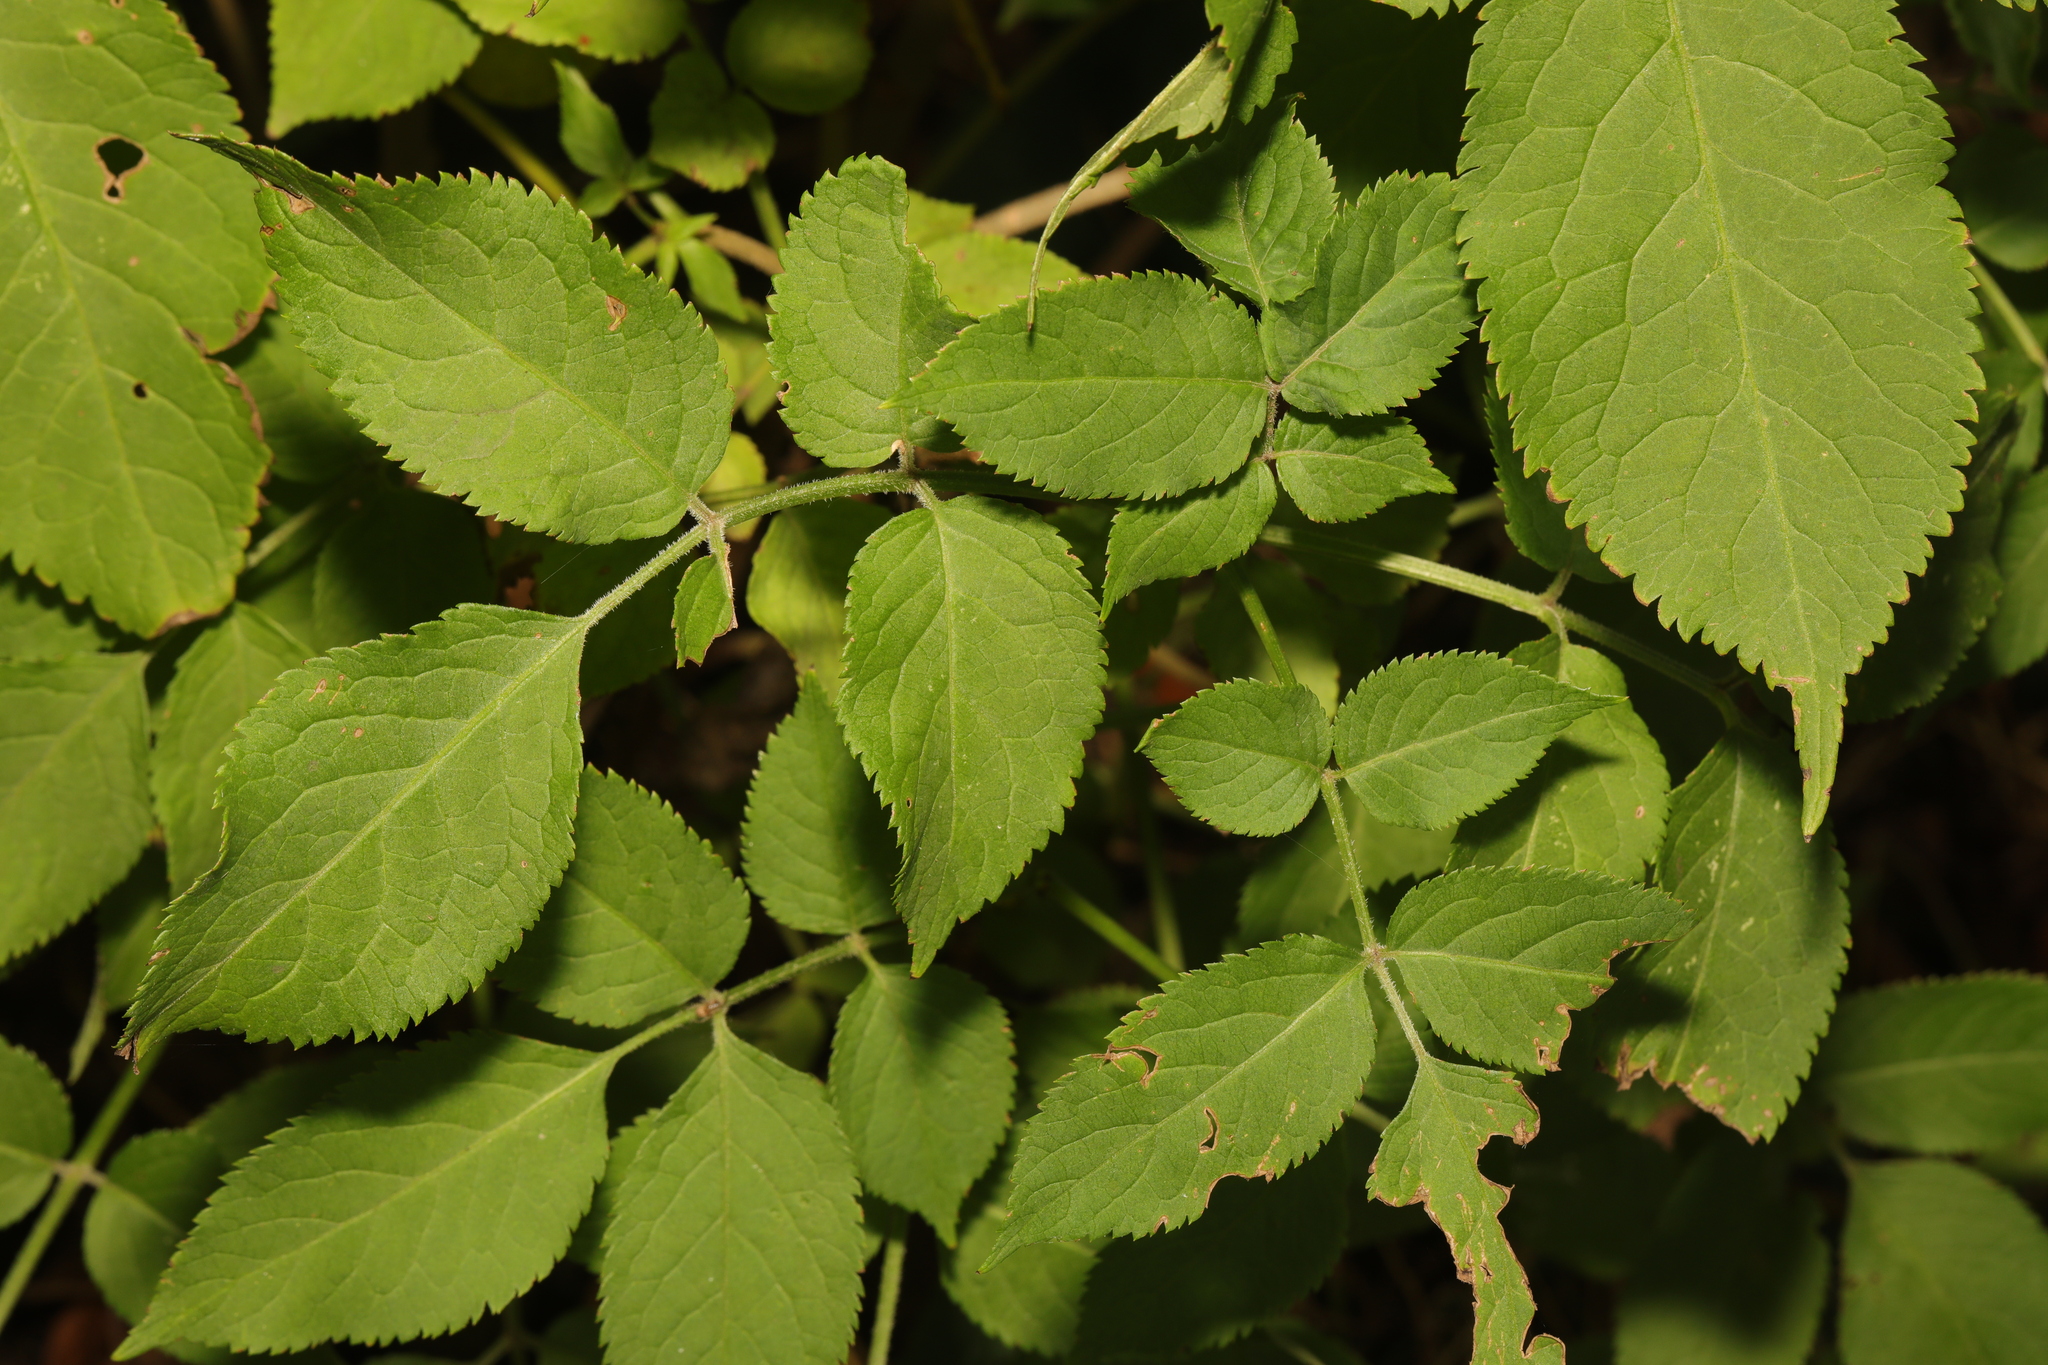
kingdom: Plantae
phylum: Tracheophyta
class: Magnoliopsida
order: Dipsacales
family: Viburnaceae
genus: Sambucus
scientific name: Sambucus nigra
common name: Elder
